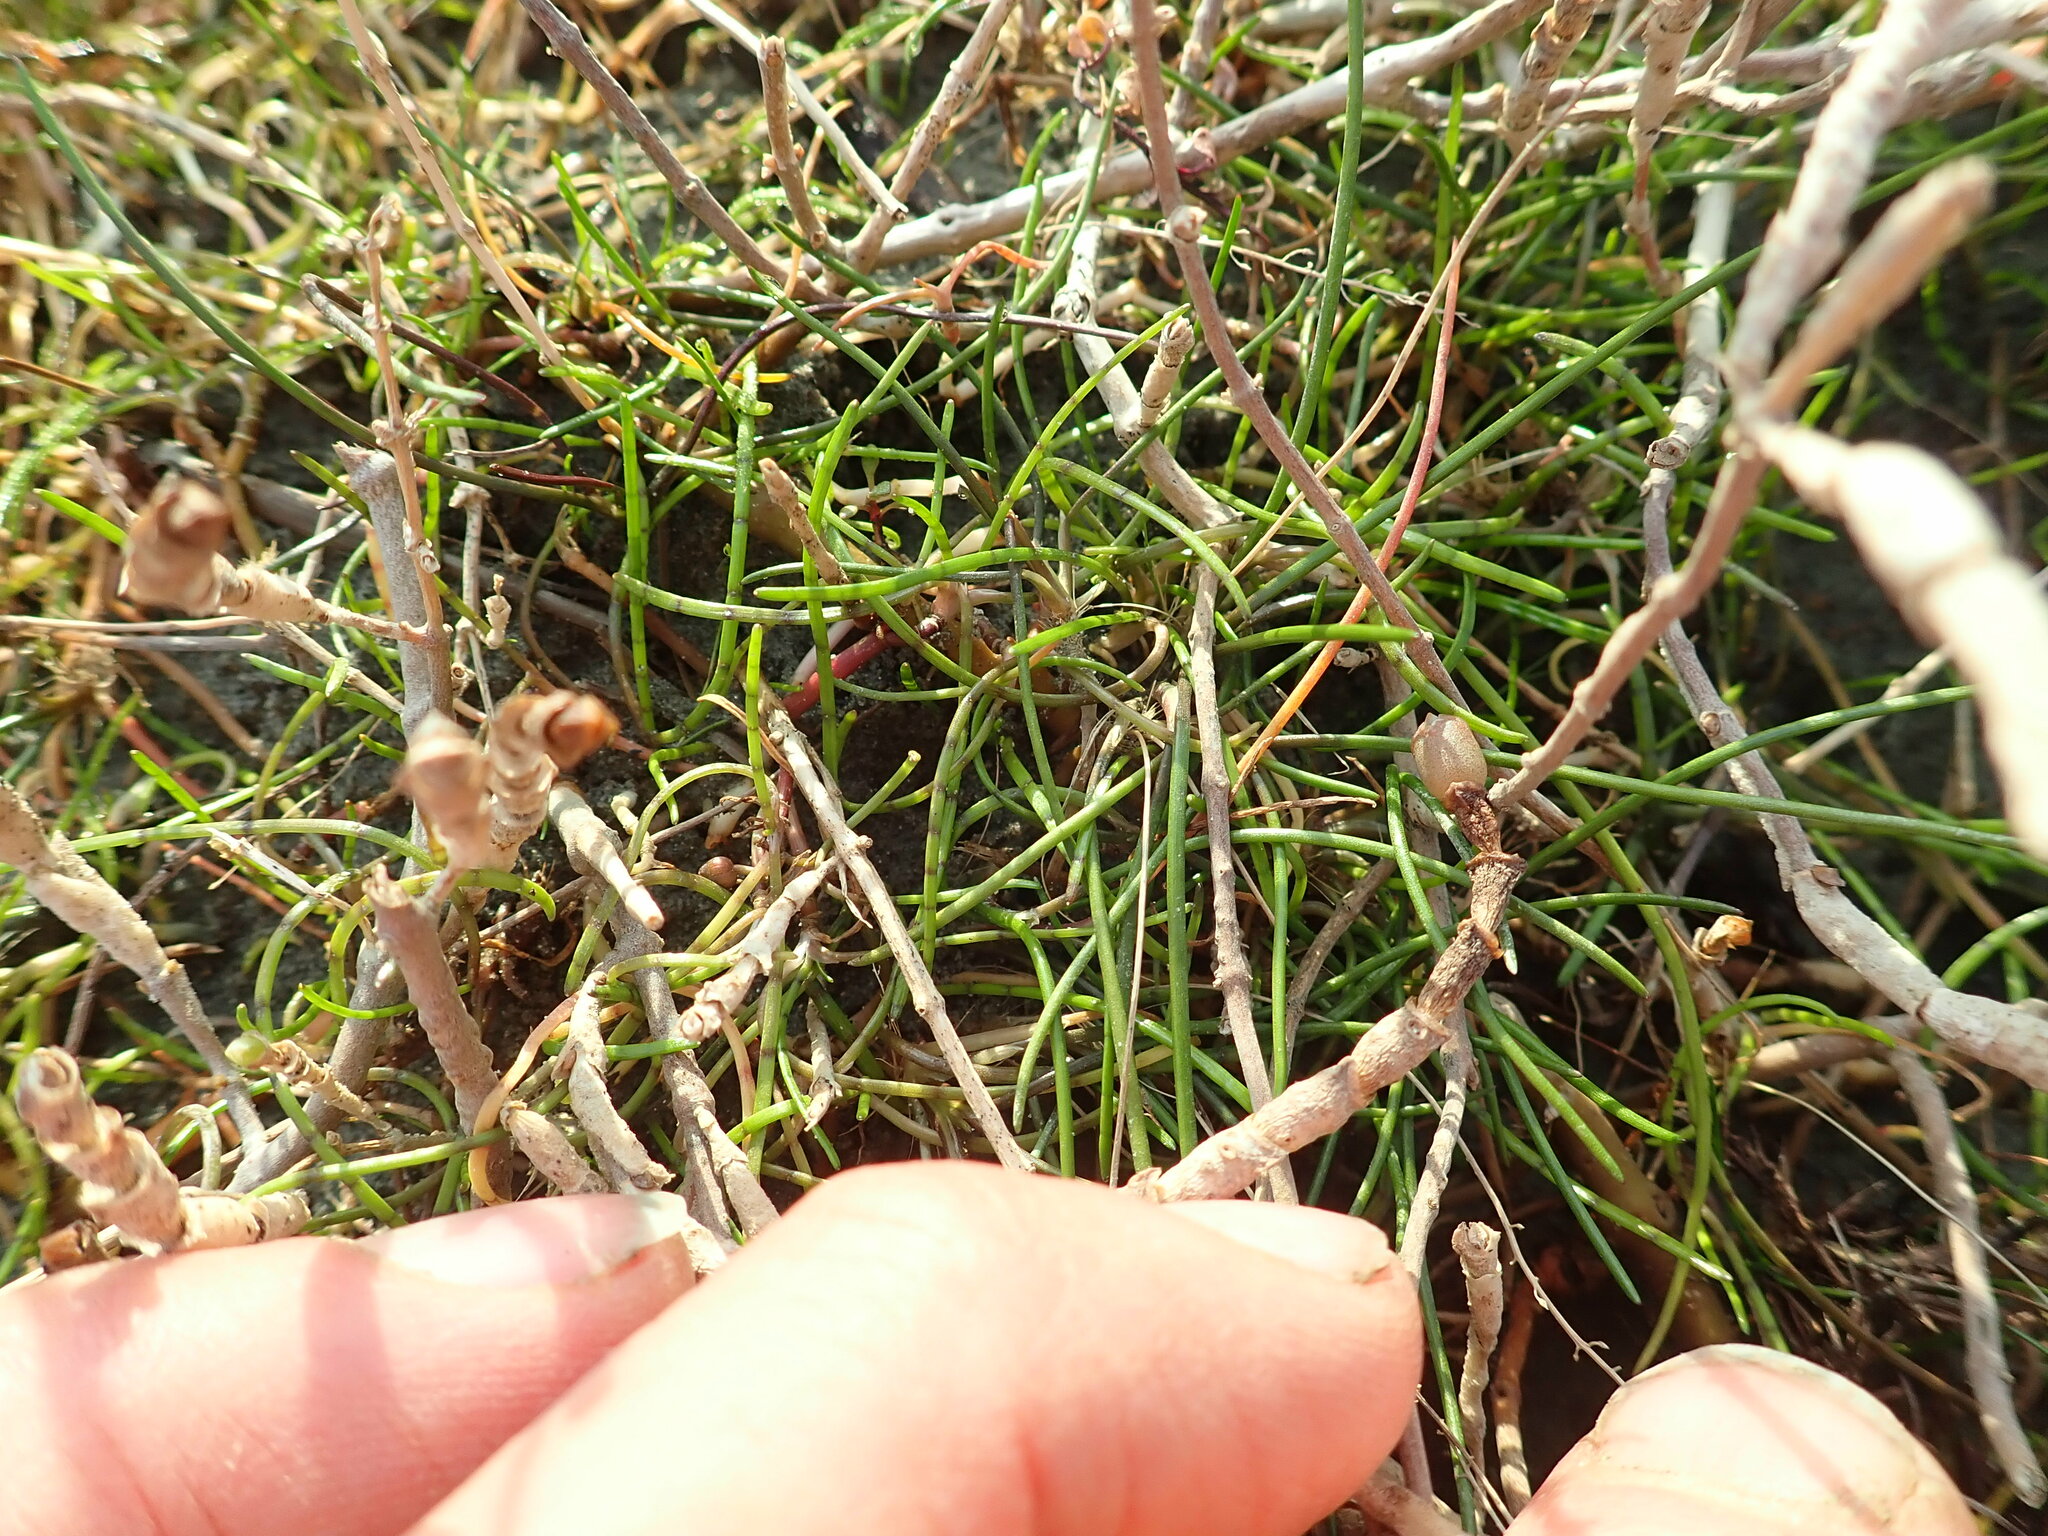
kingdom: Plantae
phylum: Tracheophyta
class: Magnoliopsida
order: Apiales
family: Apiaceae
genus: Lilaeopsis
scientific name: Lilaeopsis novae-zelandiae
